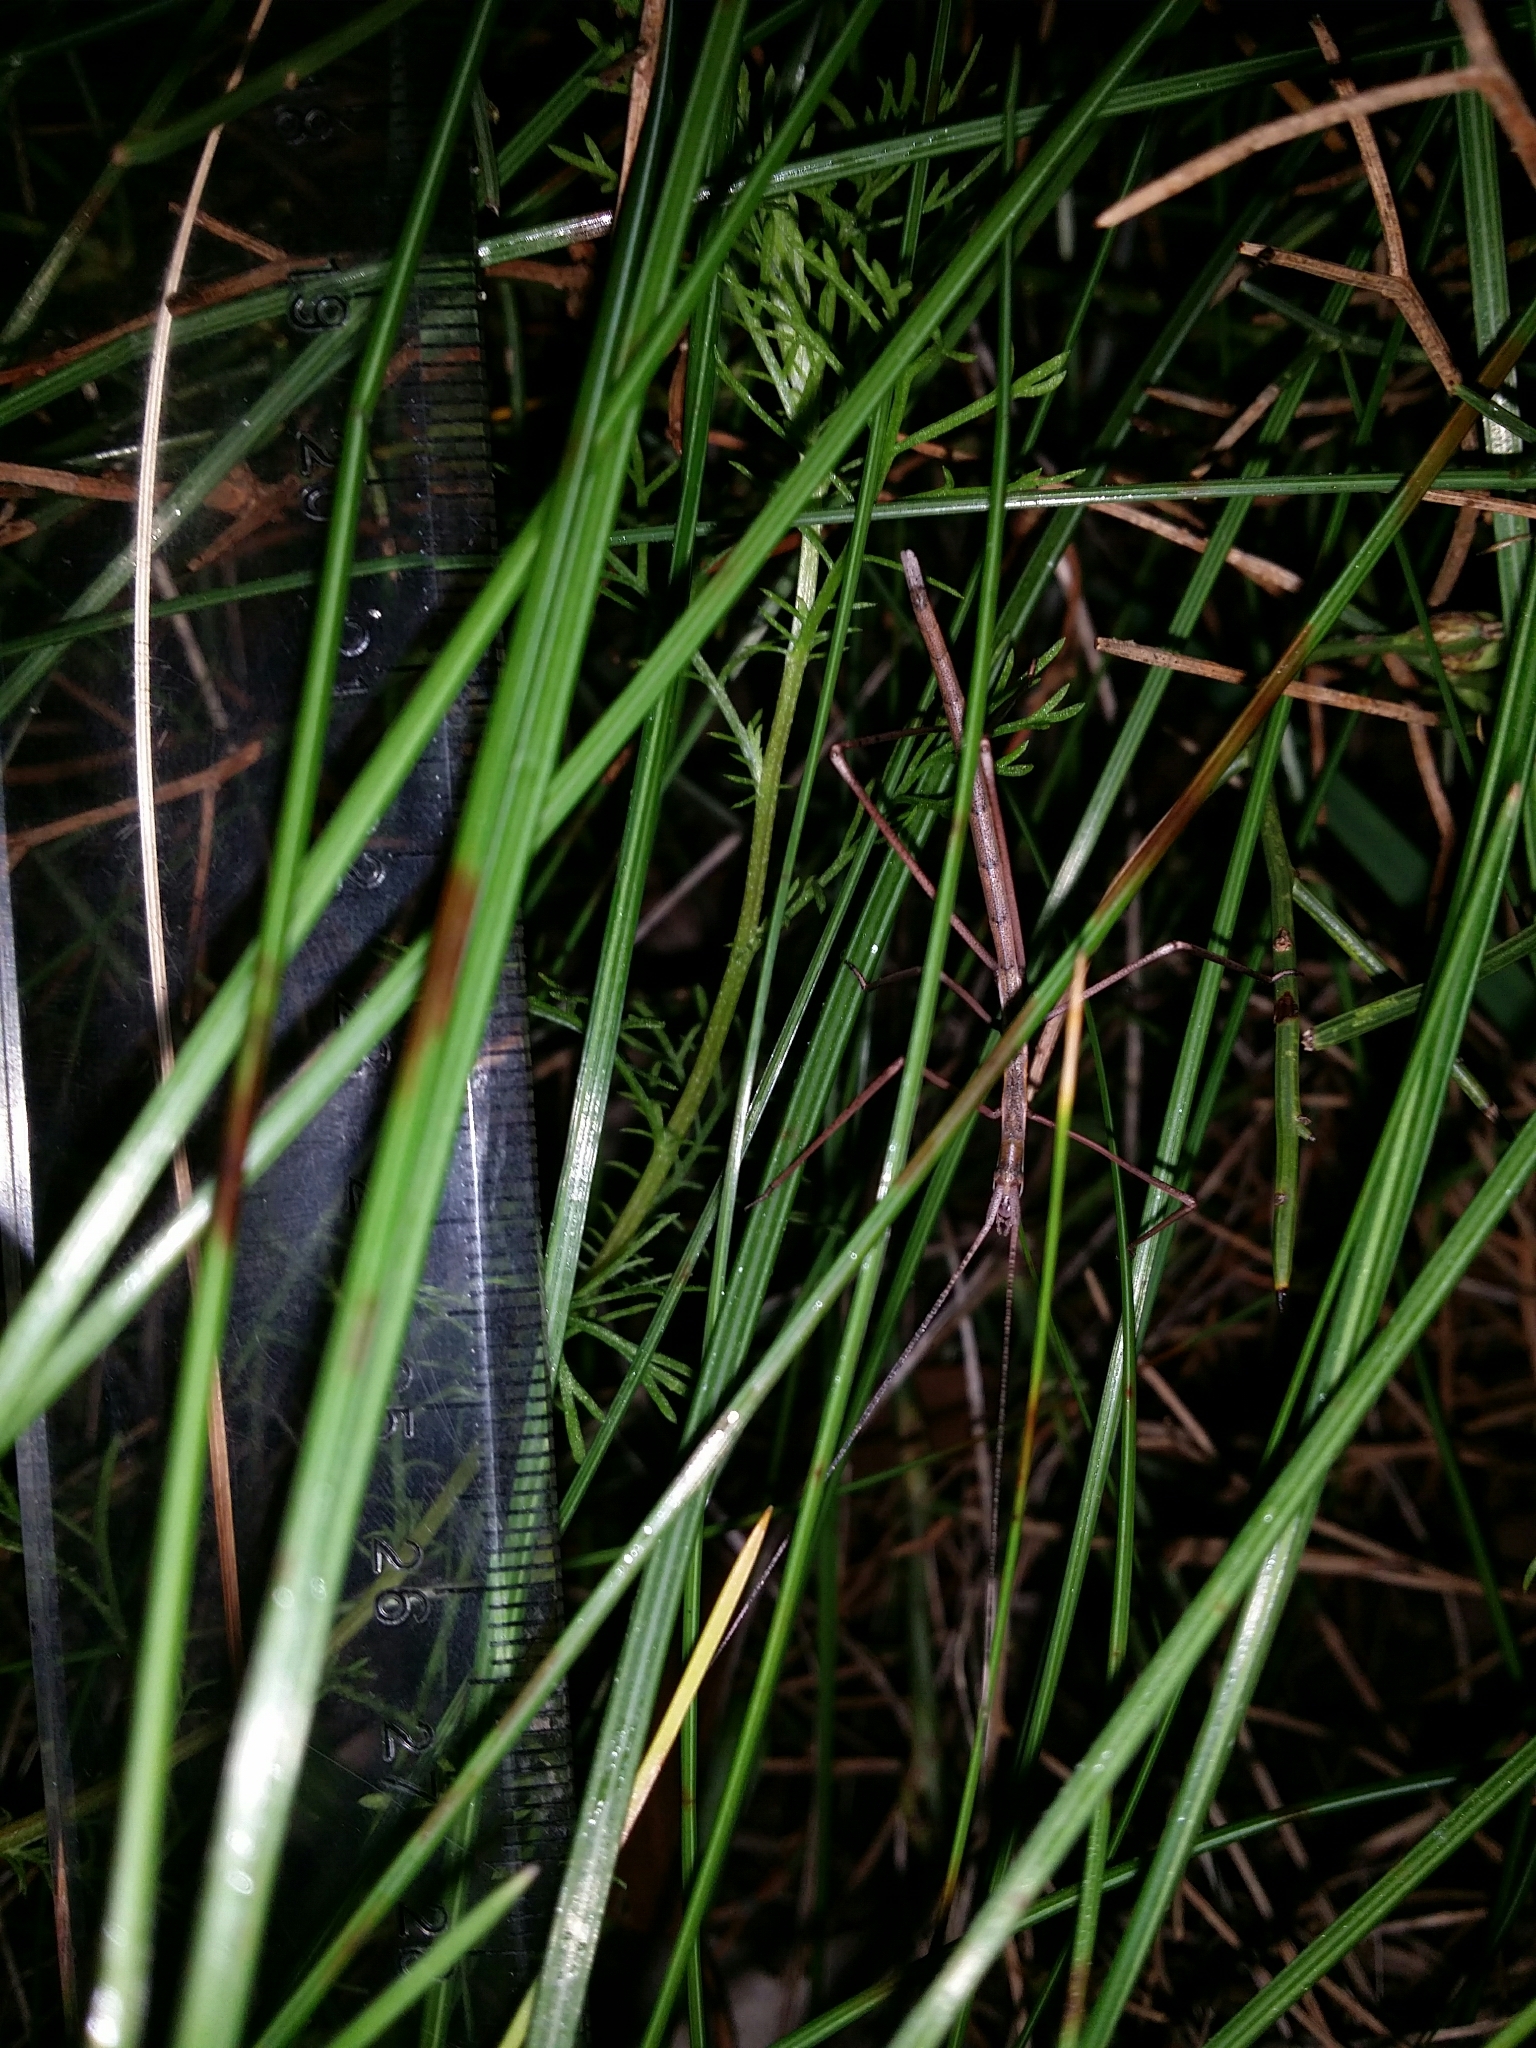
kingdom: Animalia
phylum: Arthropoda
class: Insecta
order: Orthoptera
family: Tettigoniidae
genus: Phasmodes
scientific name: Phasmodes ranatriformis
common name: King's park stick katydid
